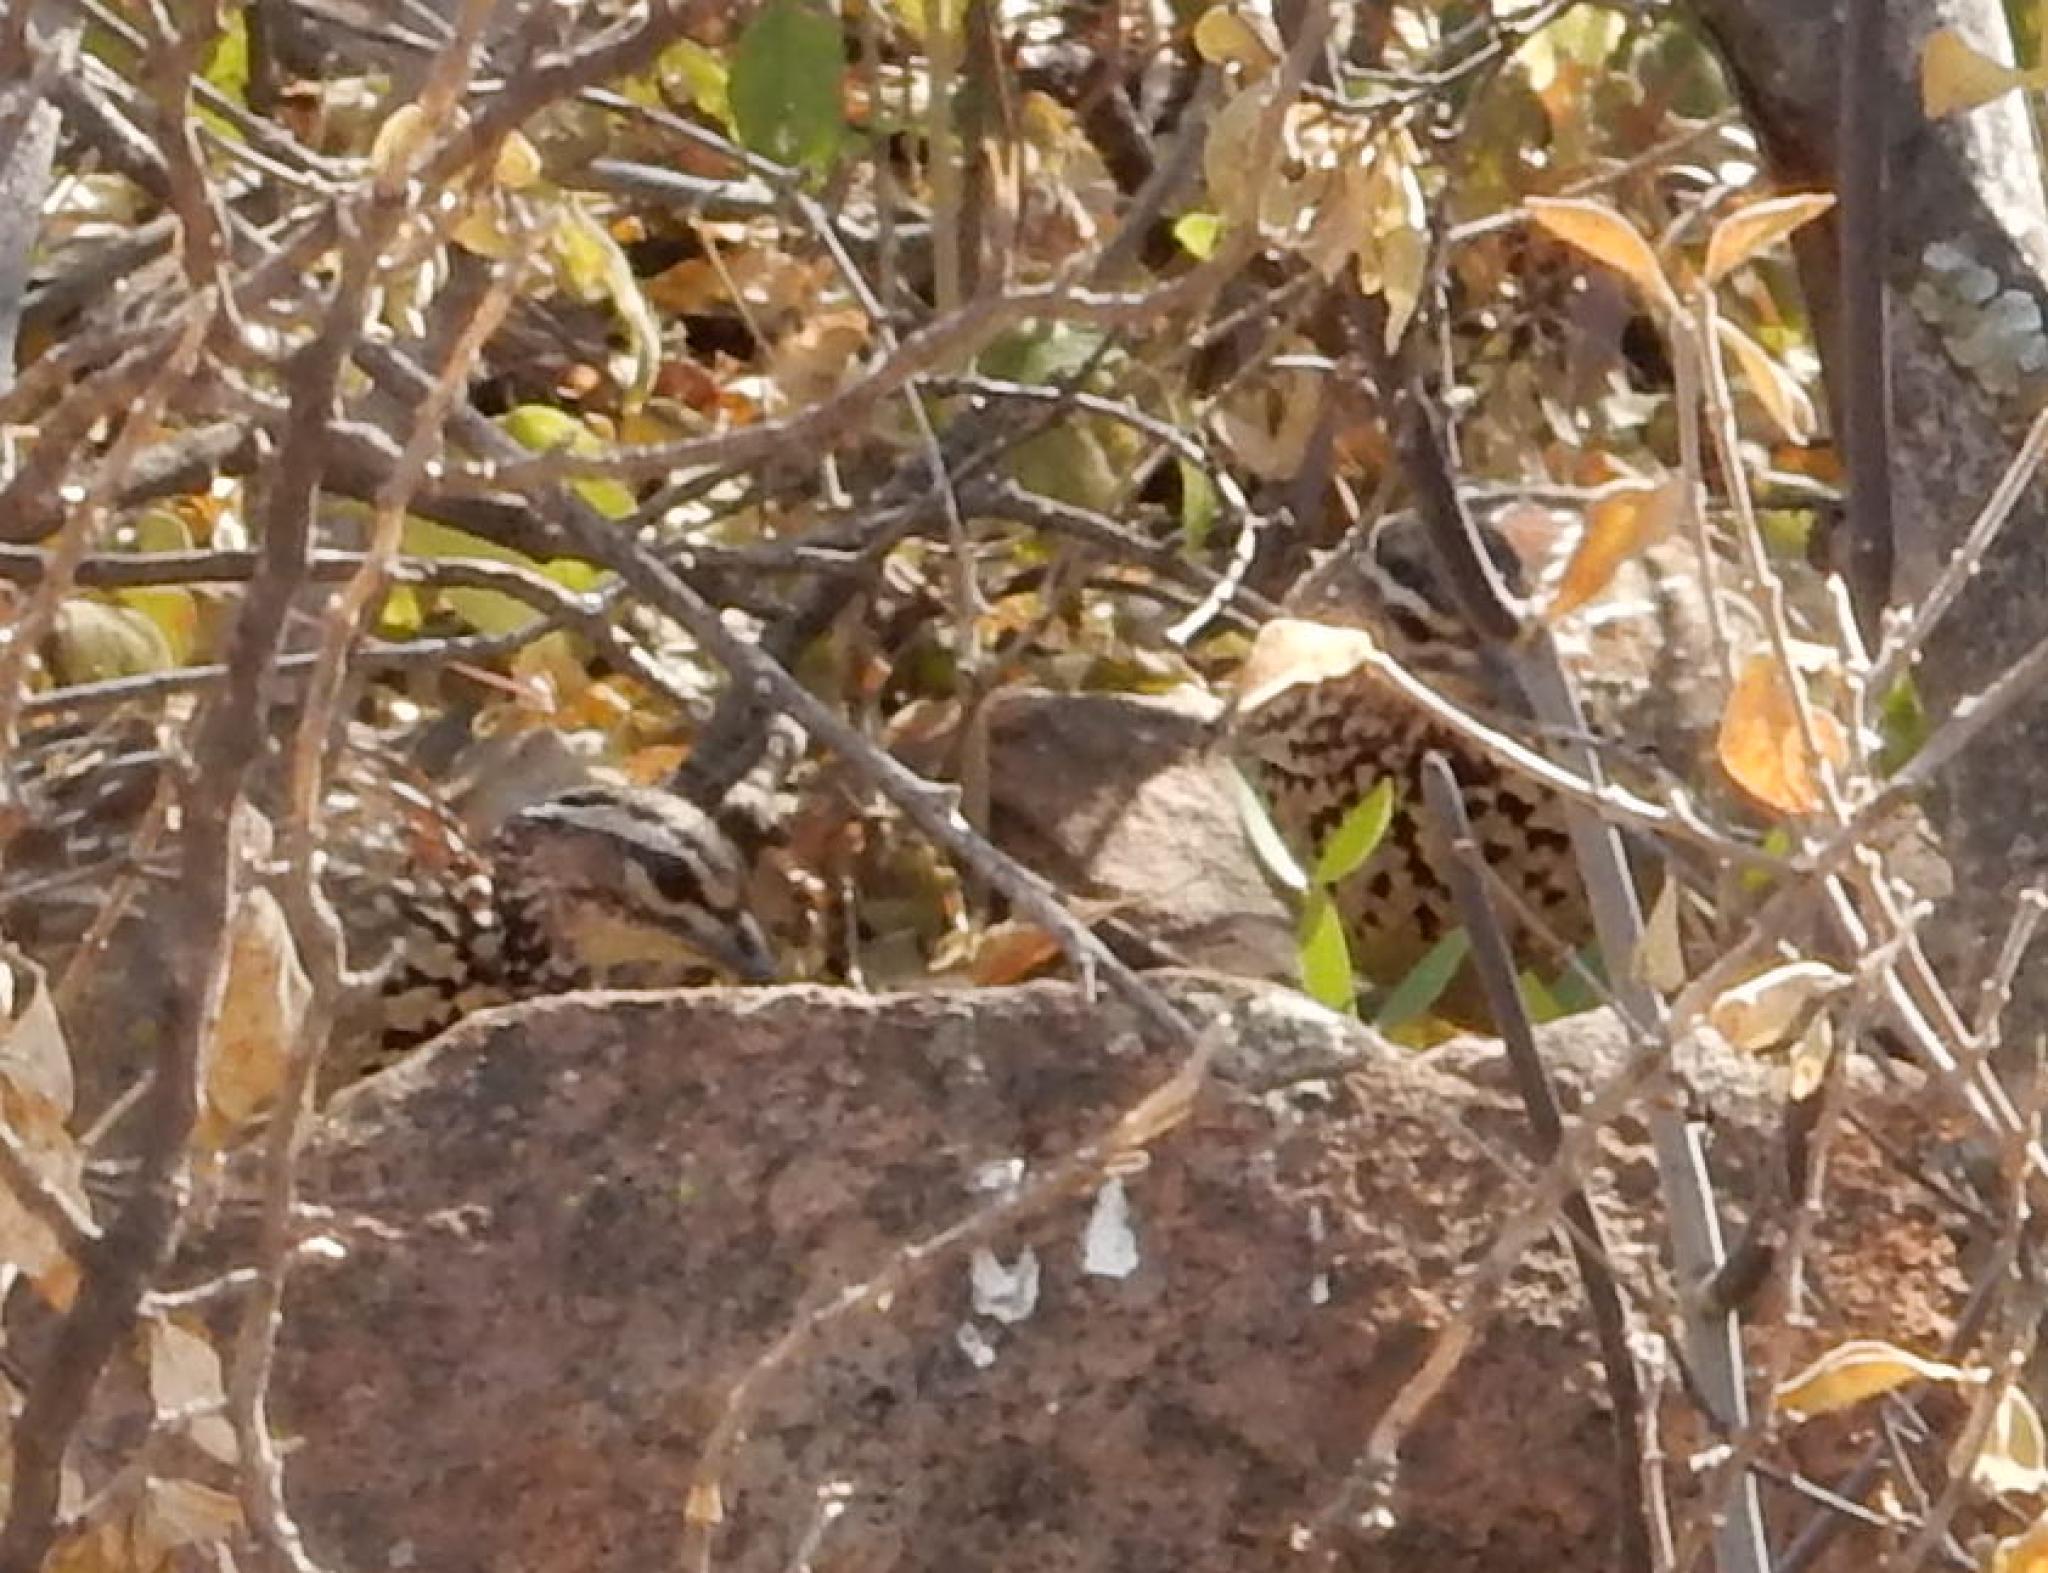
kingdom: Animalia
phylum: Chordata
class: Aves
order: Galliformes
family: Phasianidae
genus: Ortygornis
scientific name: Ortygornis sephaena
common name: Crested francolin
